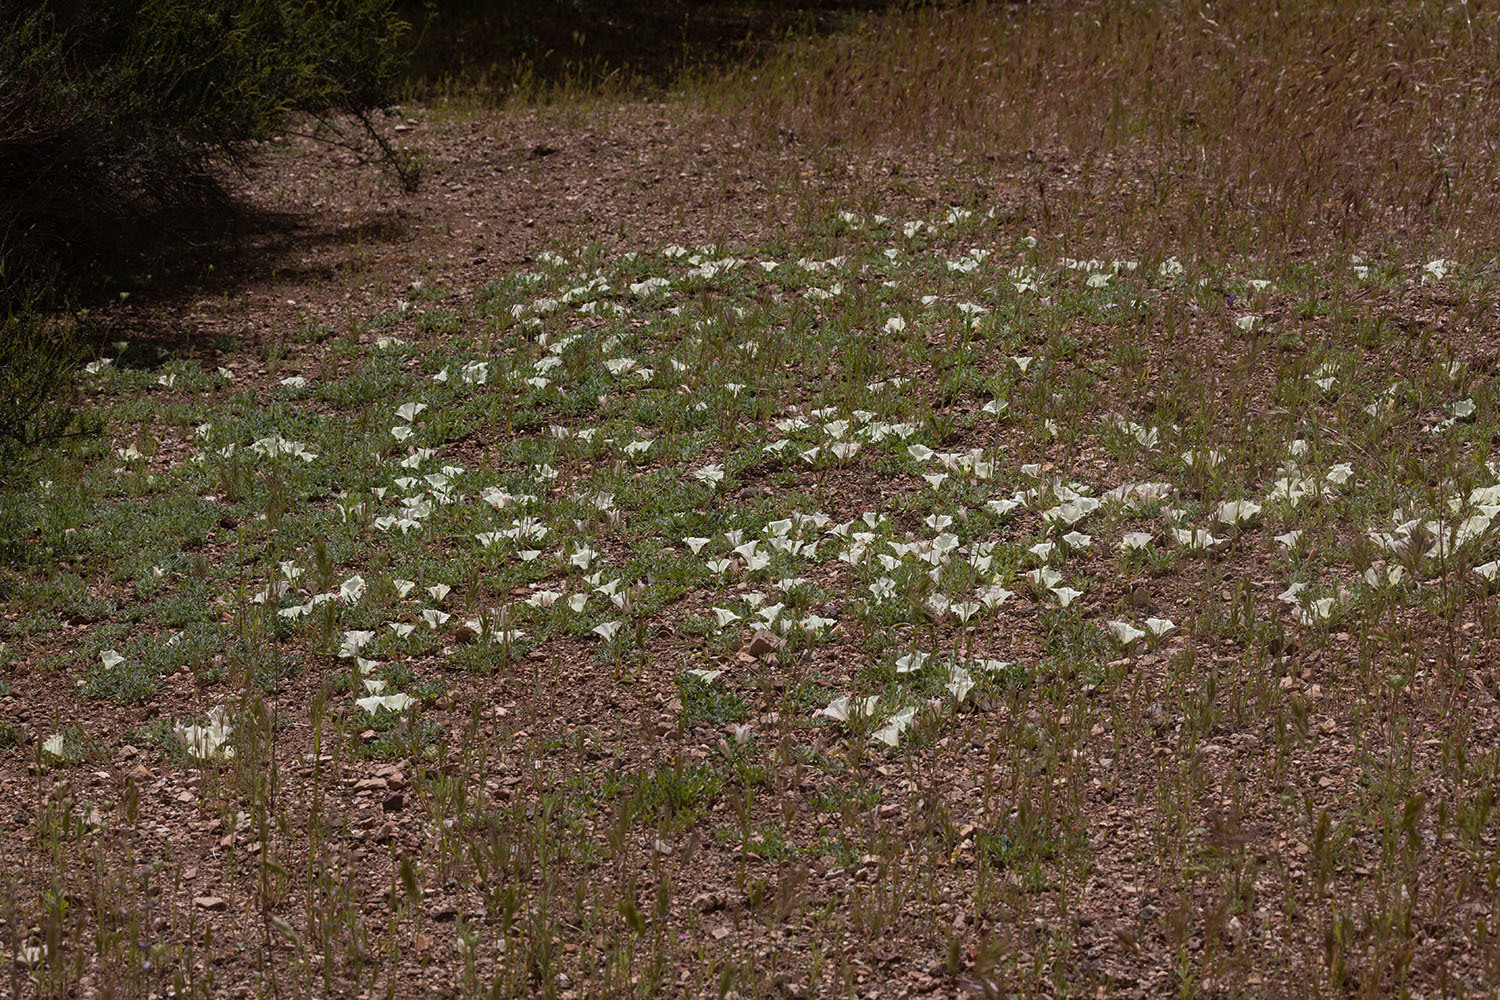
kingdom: Plantae
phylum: Tracheophyta
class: Magnoliopsida
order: Solanales
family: Convolvulaceae
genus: Calystegia
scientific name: Calystegia collina
